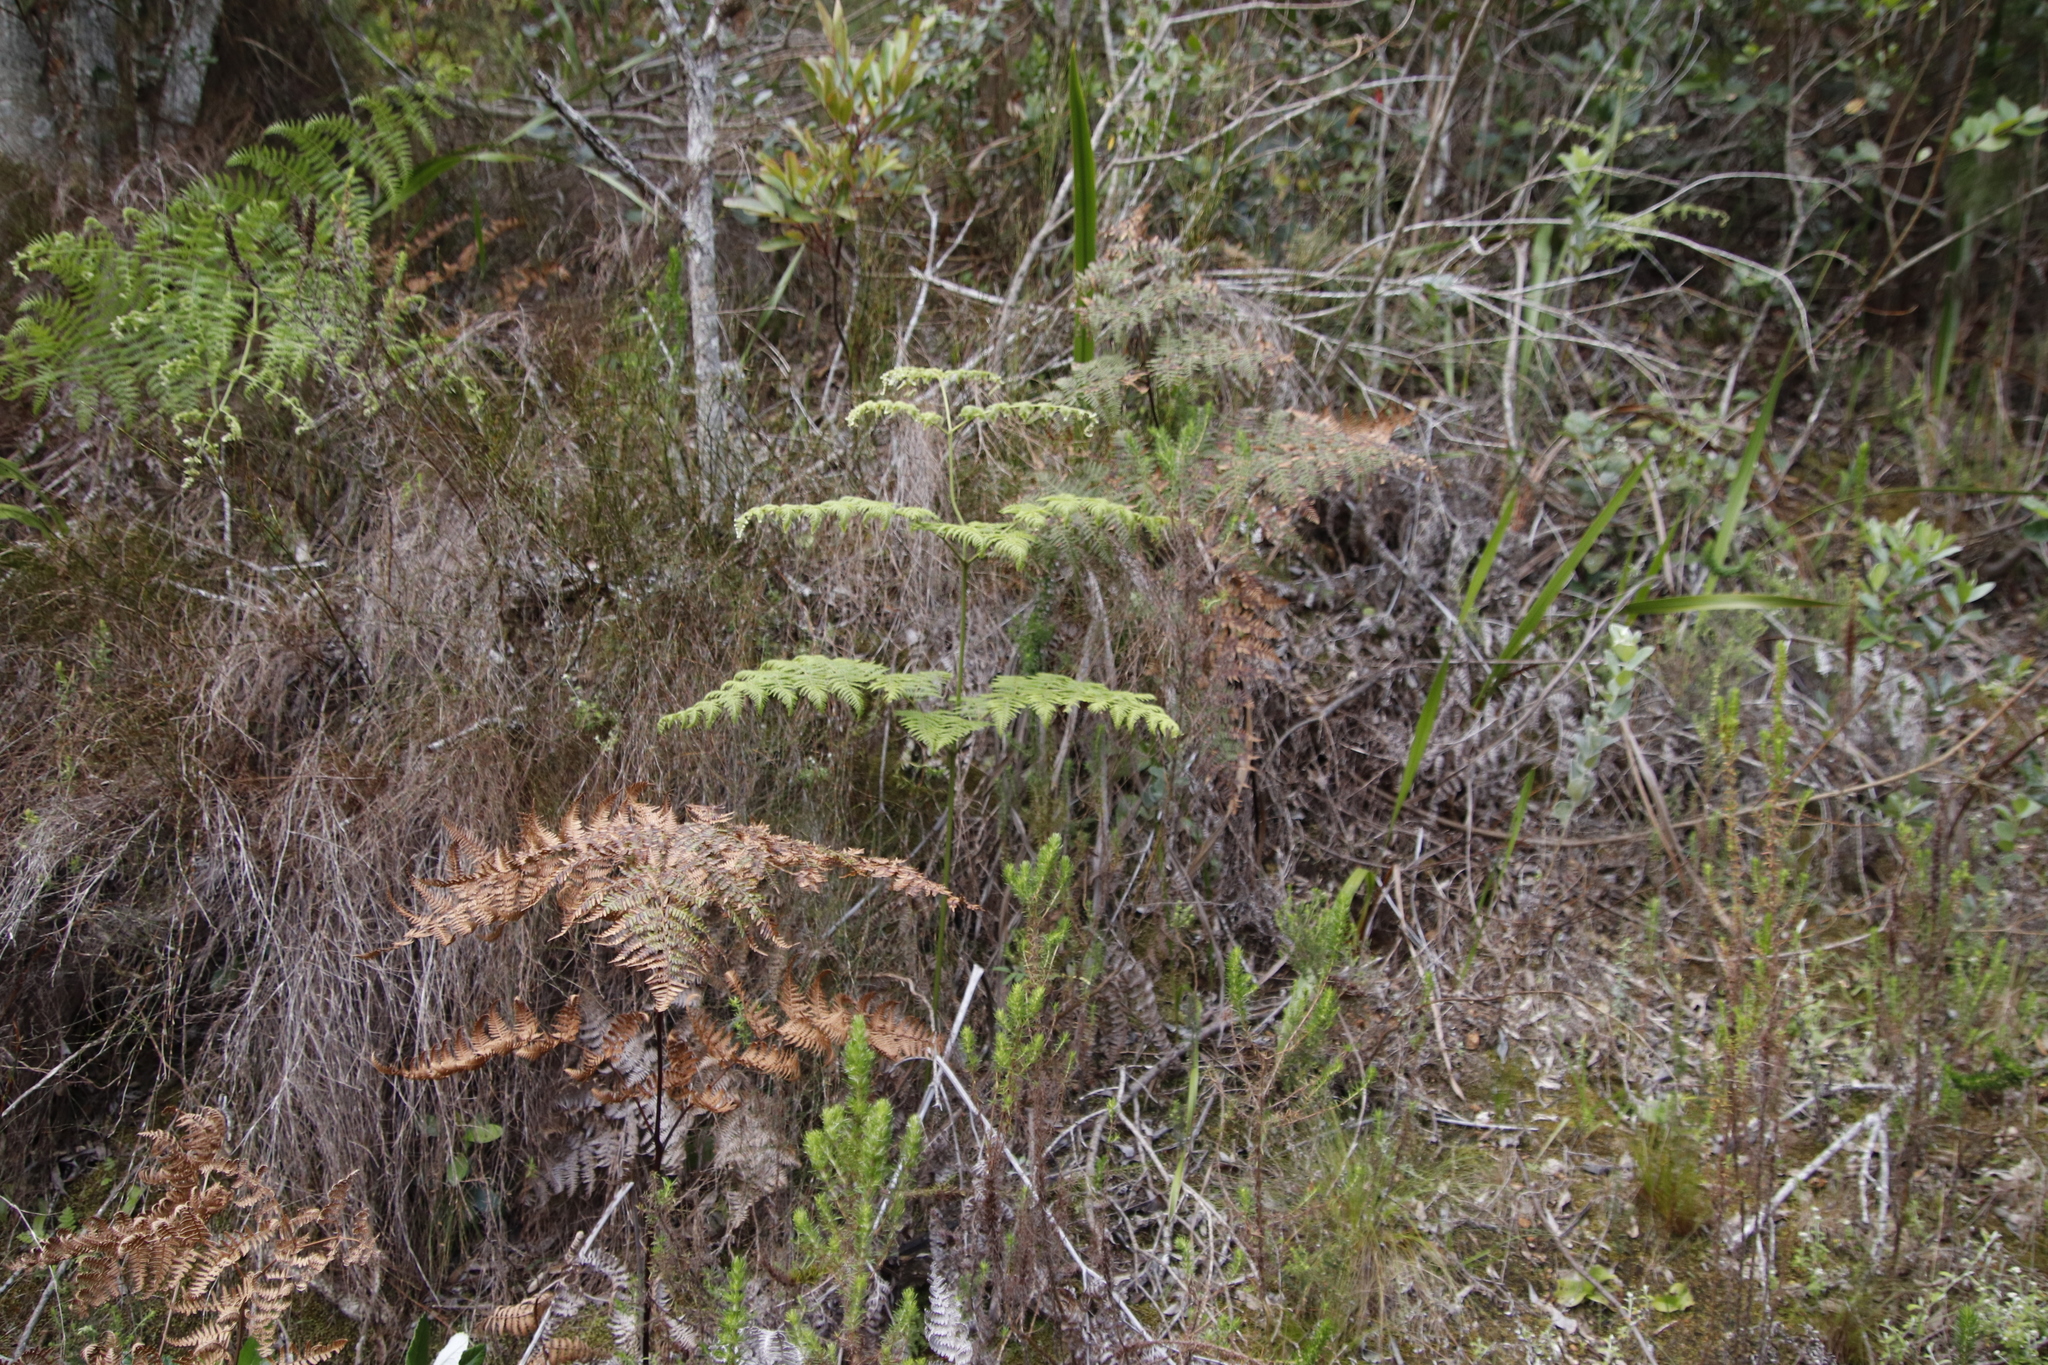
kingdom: Plantae
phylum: Tracheophyta
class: Polypodiopsida
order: Polypodiales
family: Dennstaedtiaceae
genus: Pteridium
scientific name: Pteridium aquilinum
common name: Bracken
